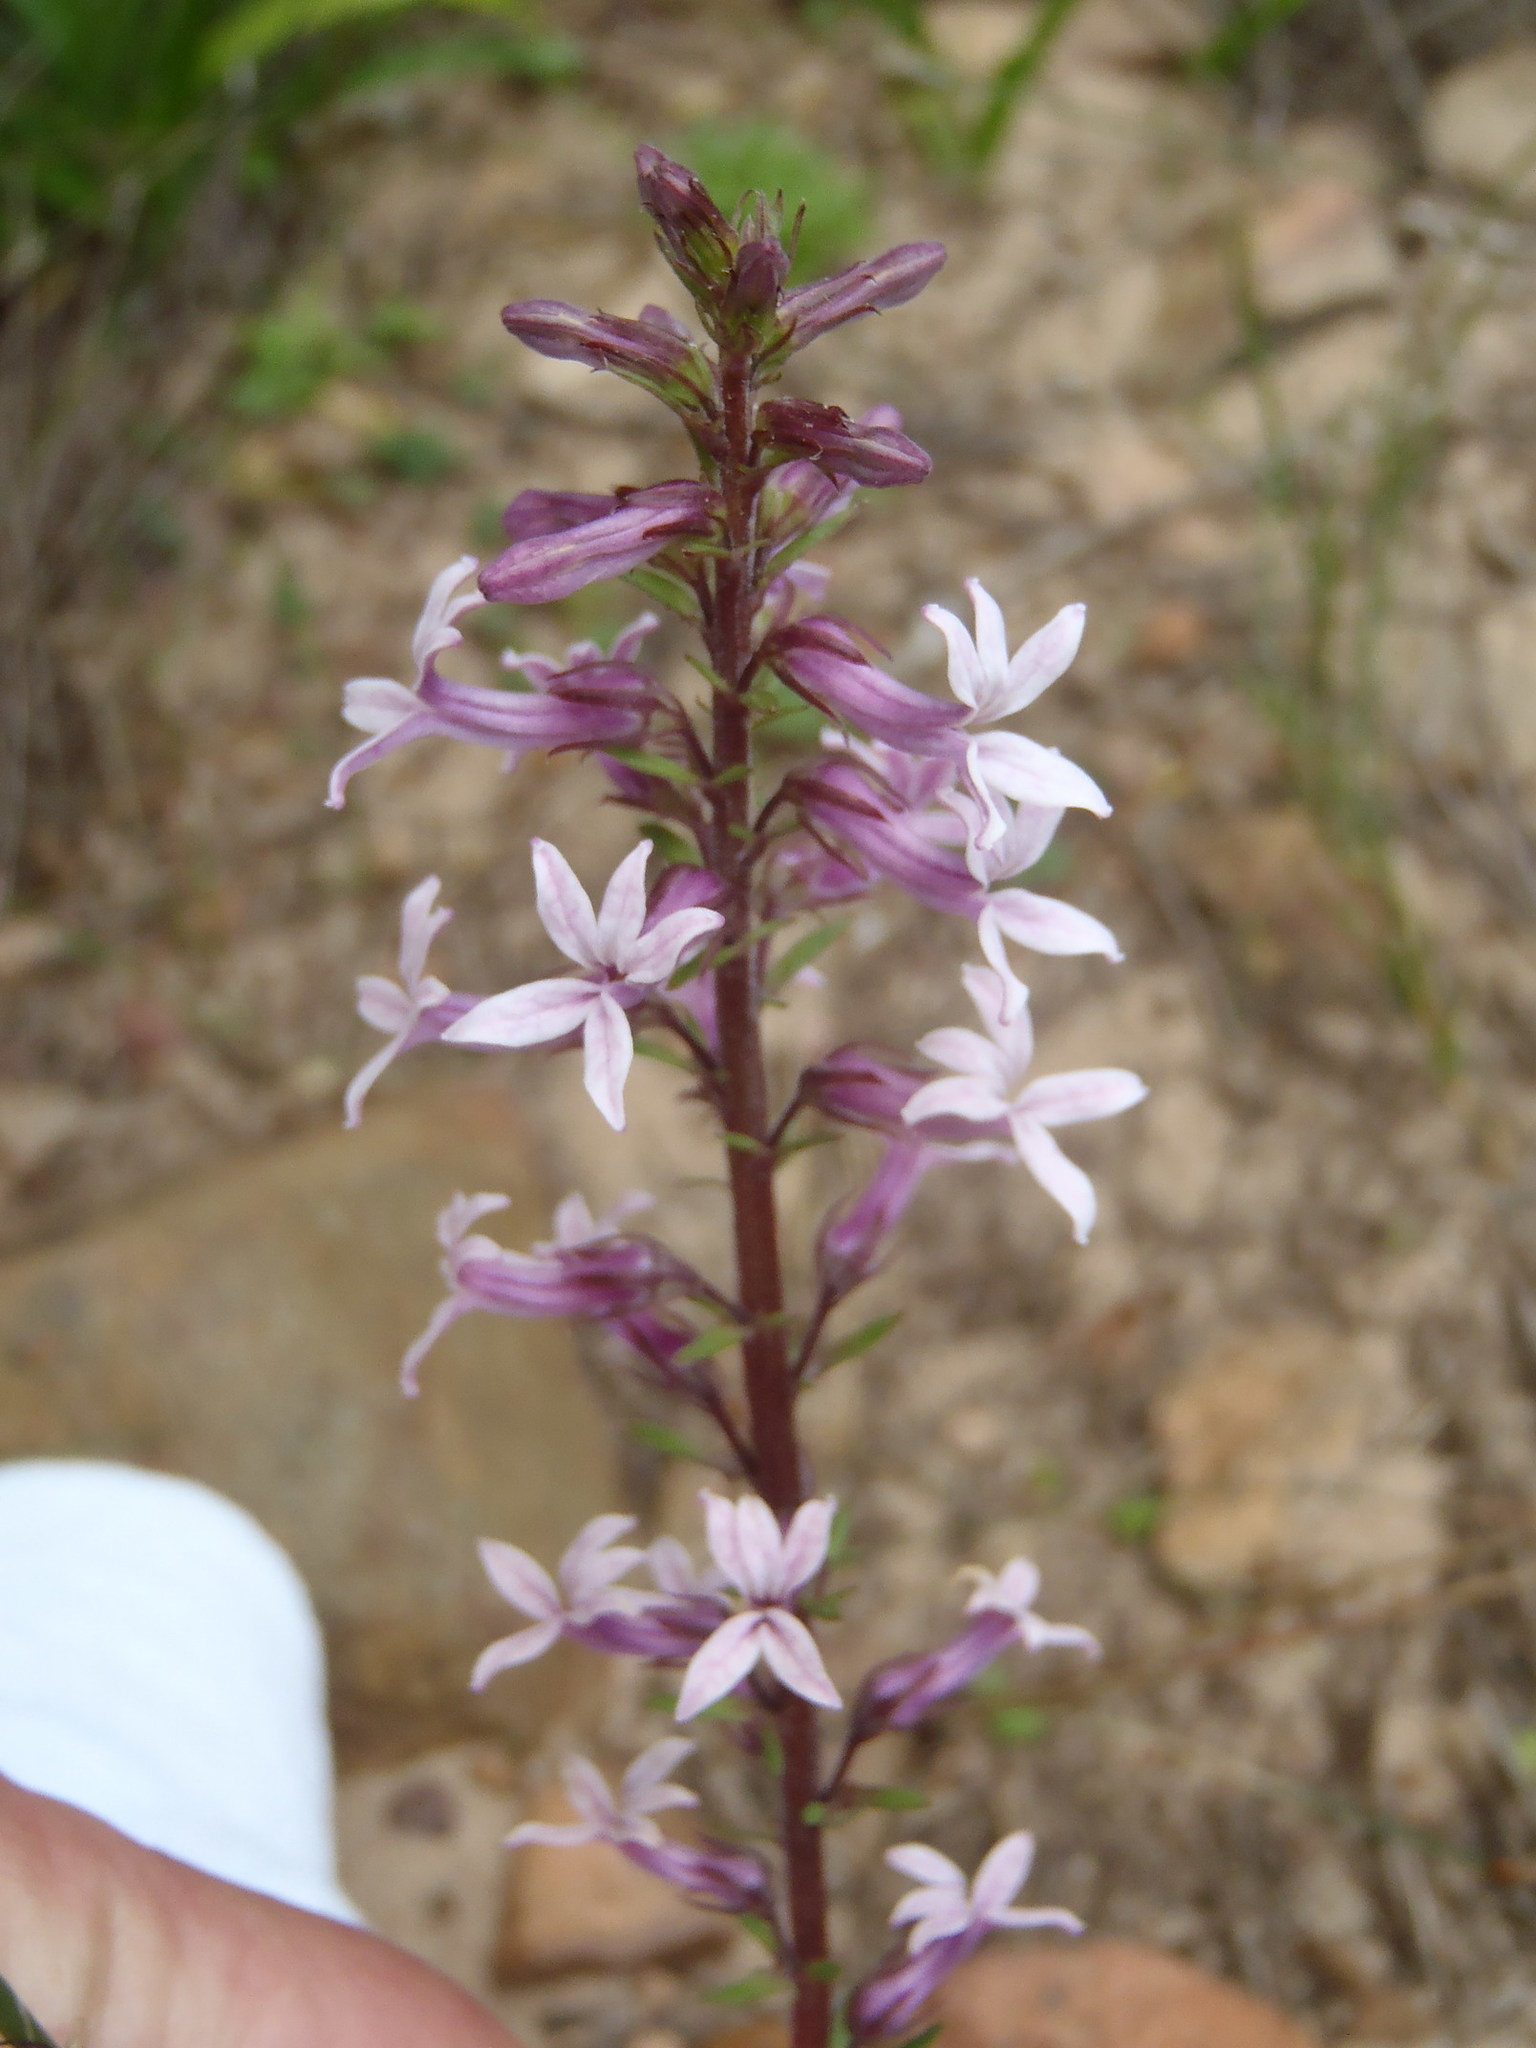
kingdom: Plantae
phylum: Tracheophyta
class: Magnoliopsida
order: Asterales
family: Campanulaceae
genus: Cyphia
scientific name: Cyphia bulbosa
